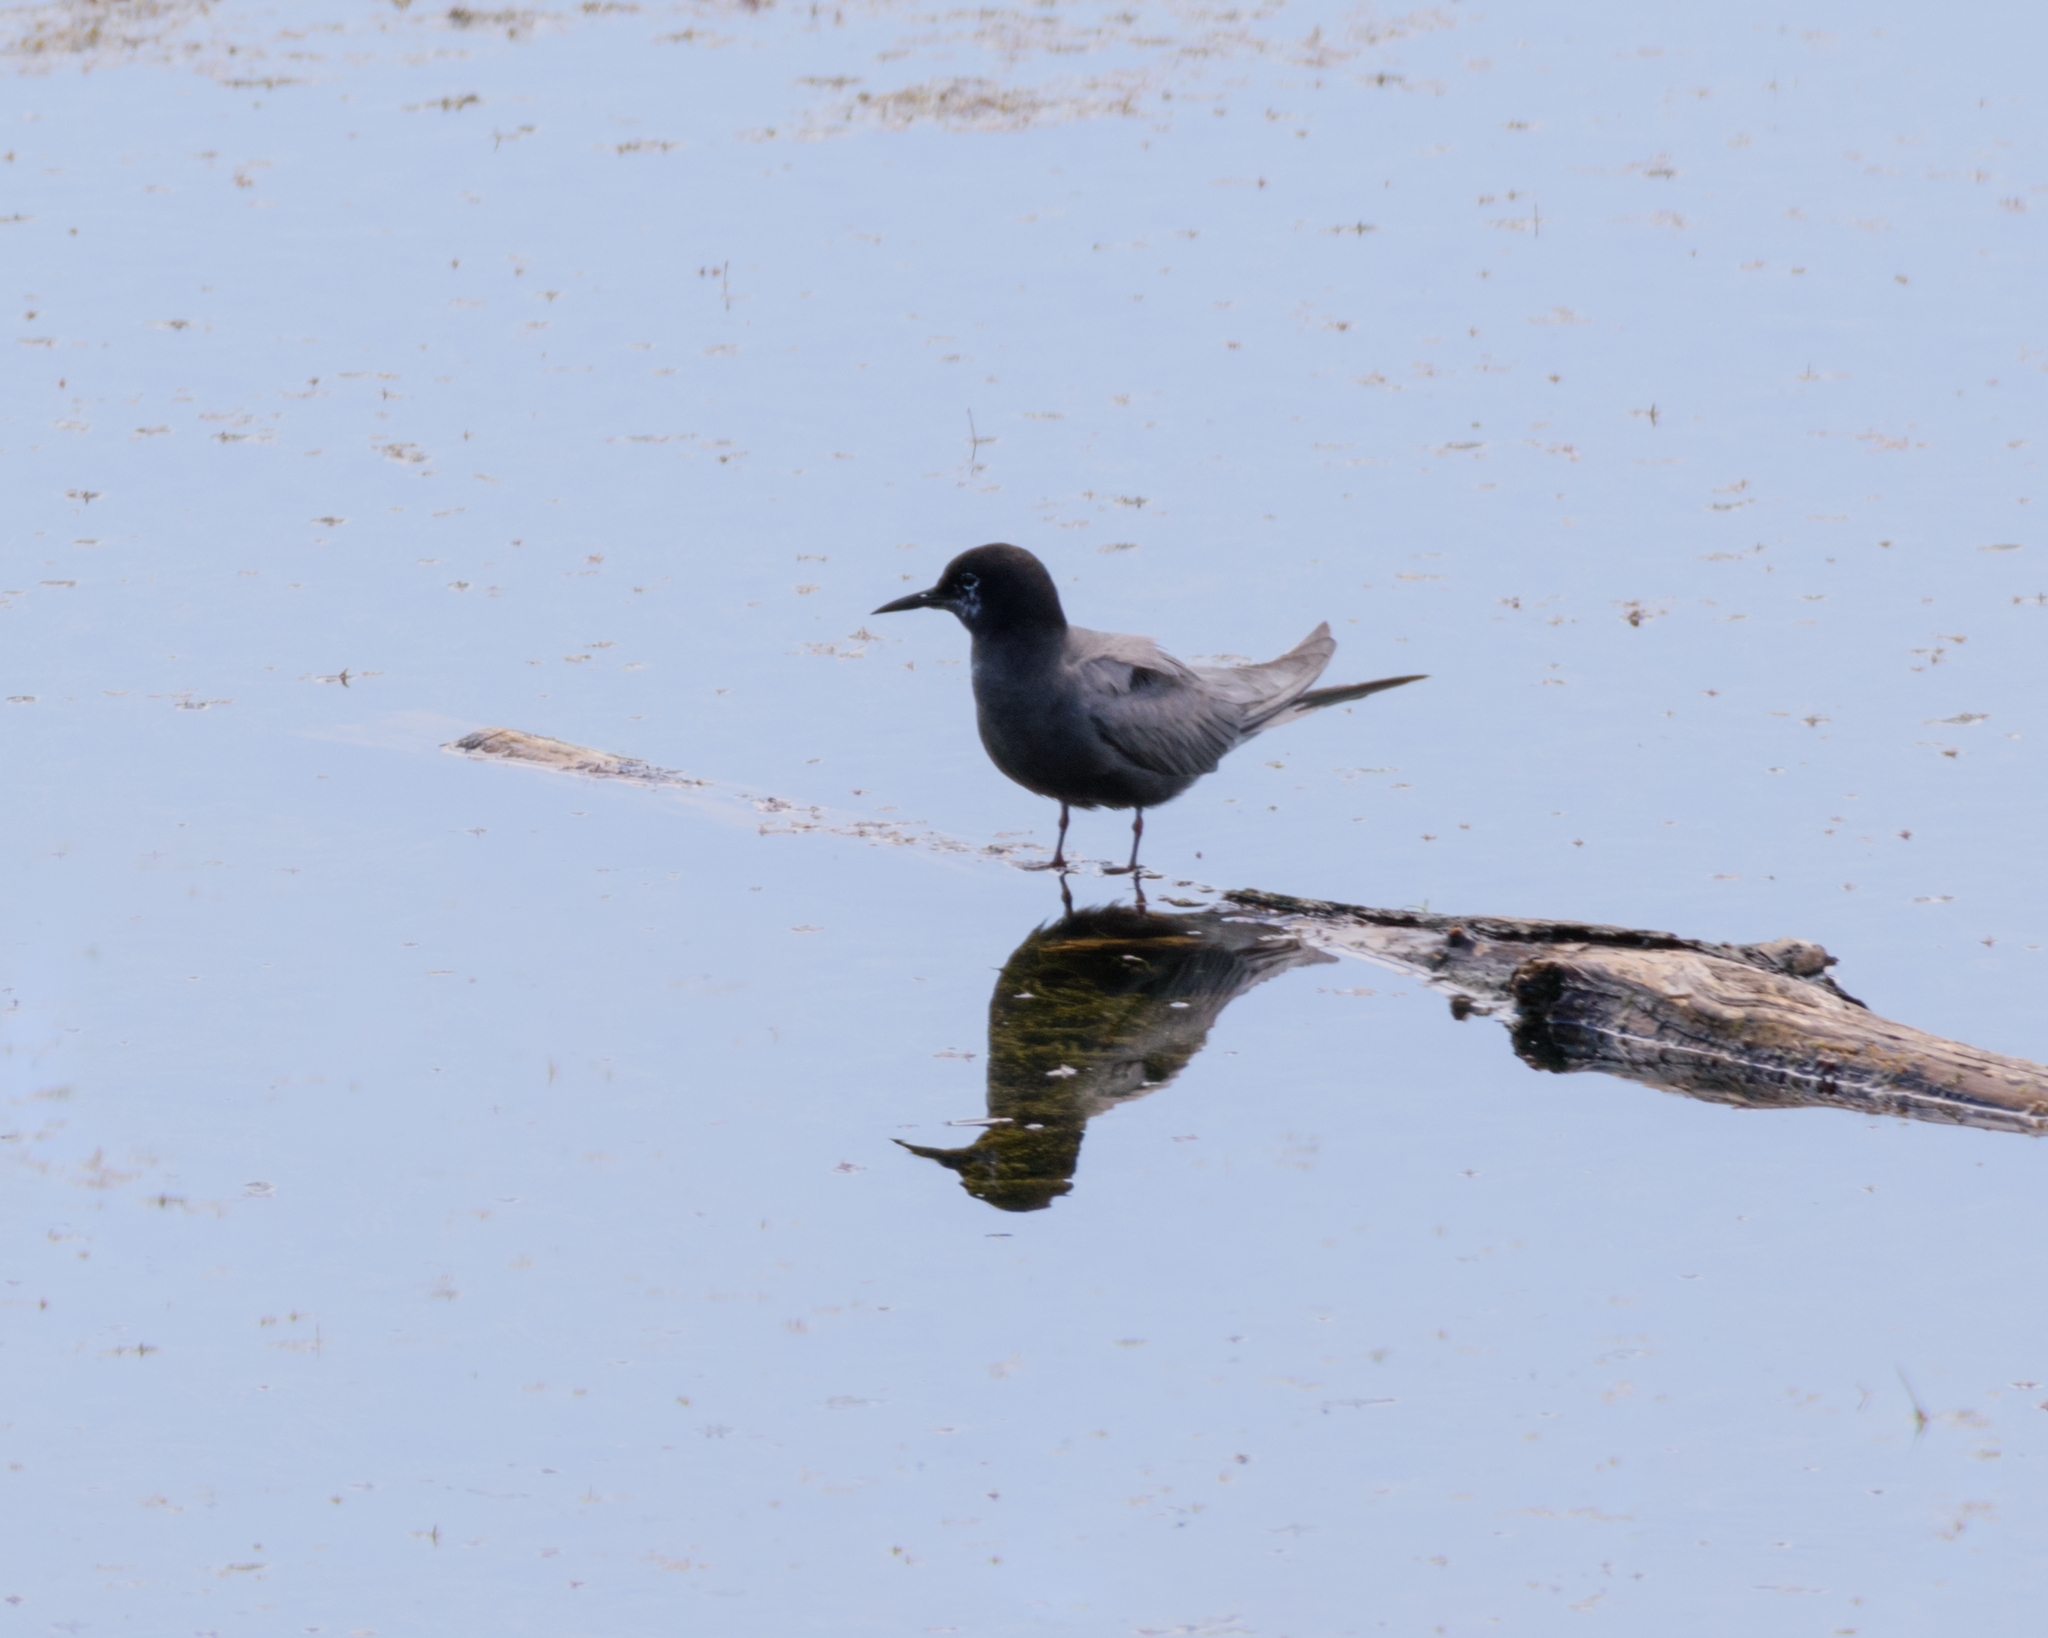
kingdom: Animalia
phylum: Chordata
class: Aves
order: Charadriiformes
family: Laridae
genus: Chlidonias
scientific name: Chlidonias niger
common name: Black tern
